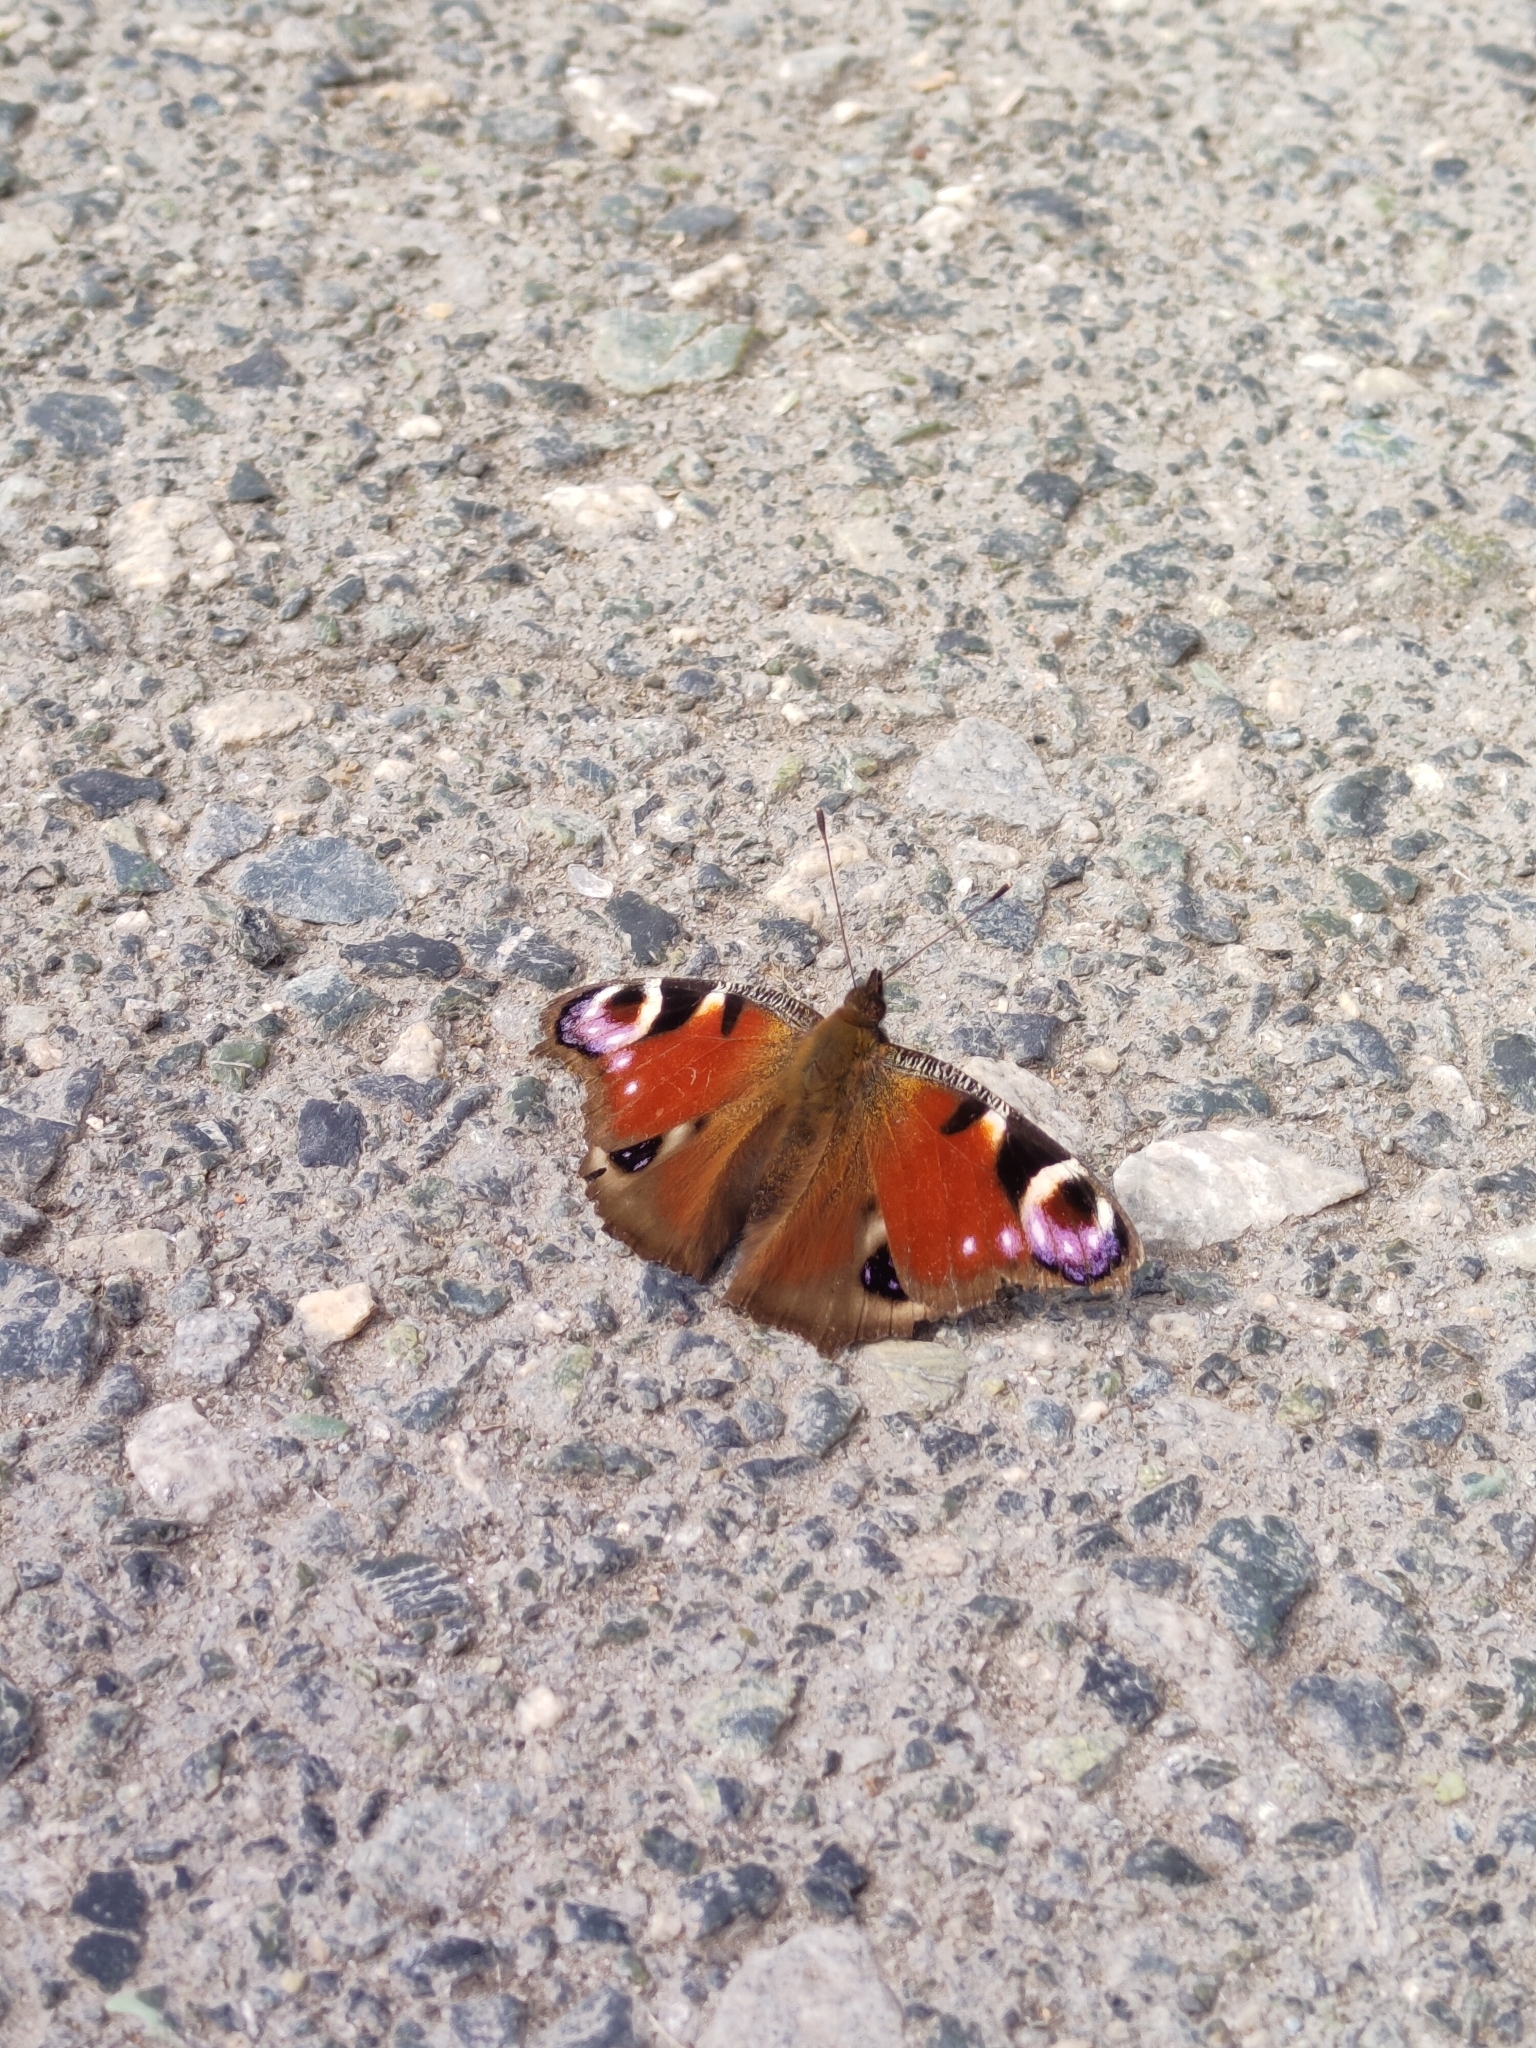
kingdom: Animalia
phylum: Arthropoda
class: Insecta
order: Lepidoptera
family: Nymphalidae
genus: Aglais
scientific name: Aglais io
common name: Peacock
